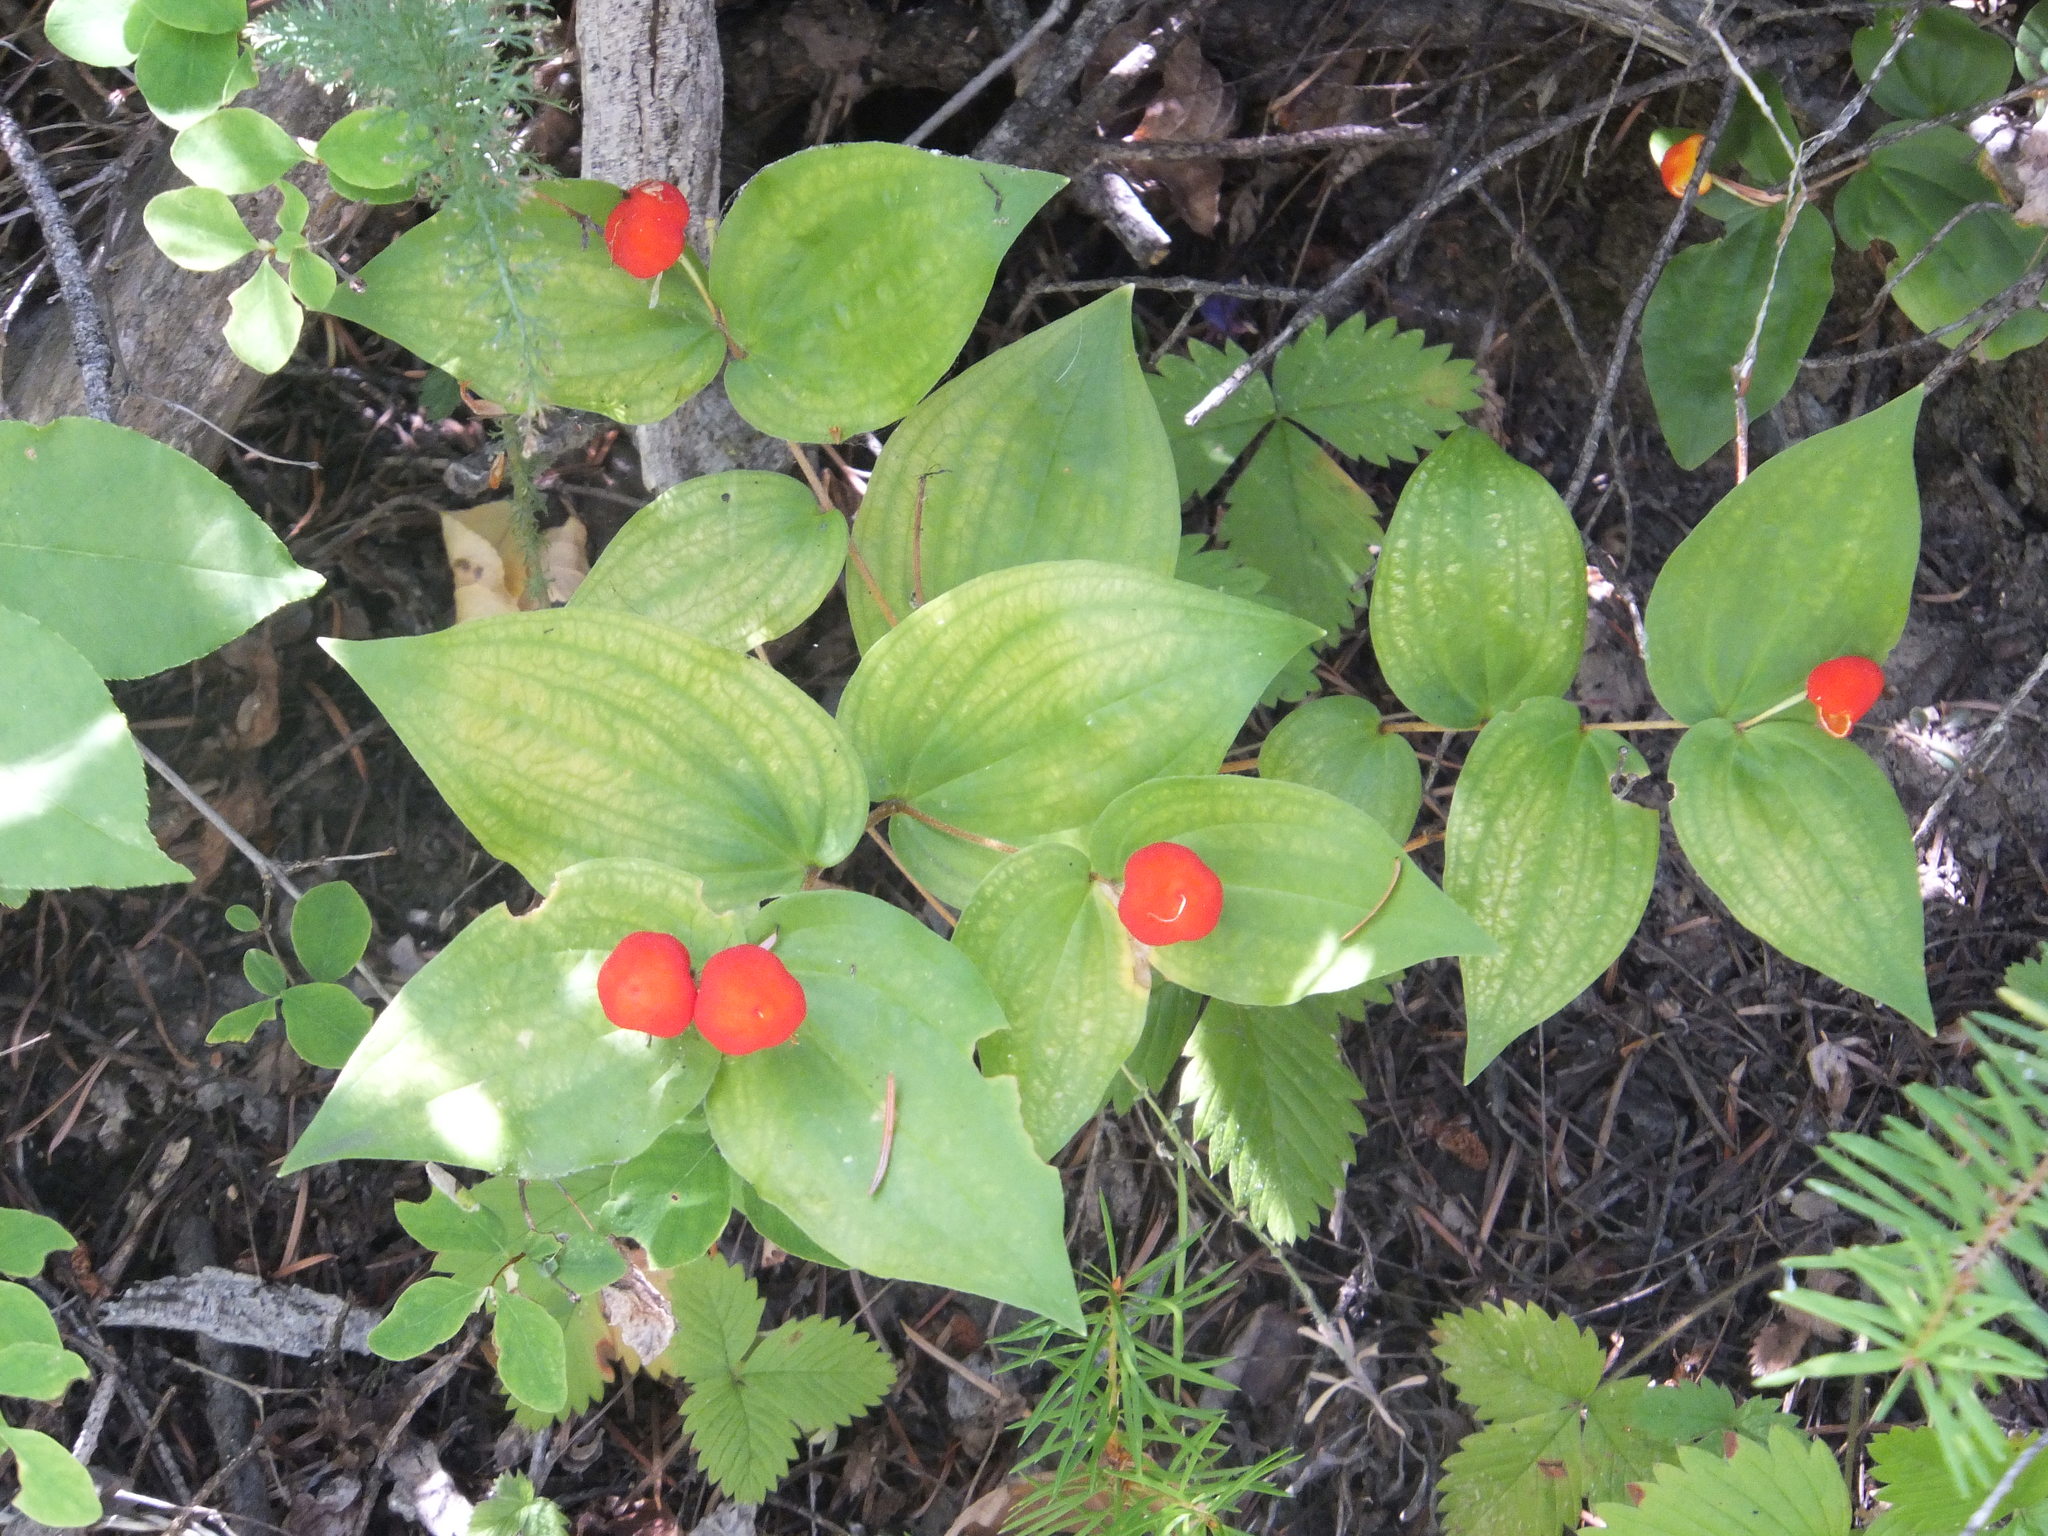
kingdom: Plantae
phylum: Tracheophyta
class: Liliopsida
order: Liliales
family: Liliaceae
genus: Prosartes
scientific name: Prosartes trachycarpa
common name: Rough-fruit fairy-bells
